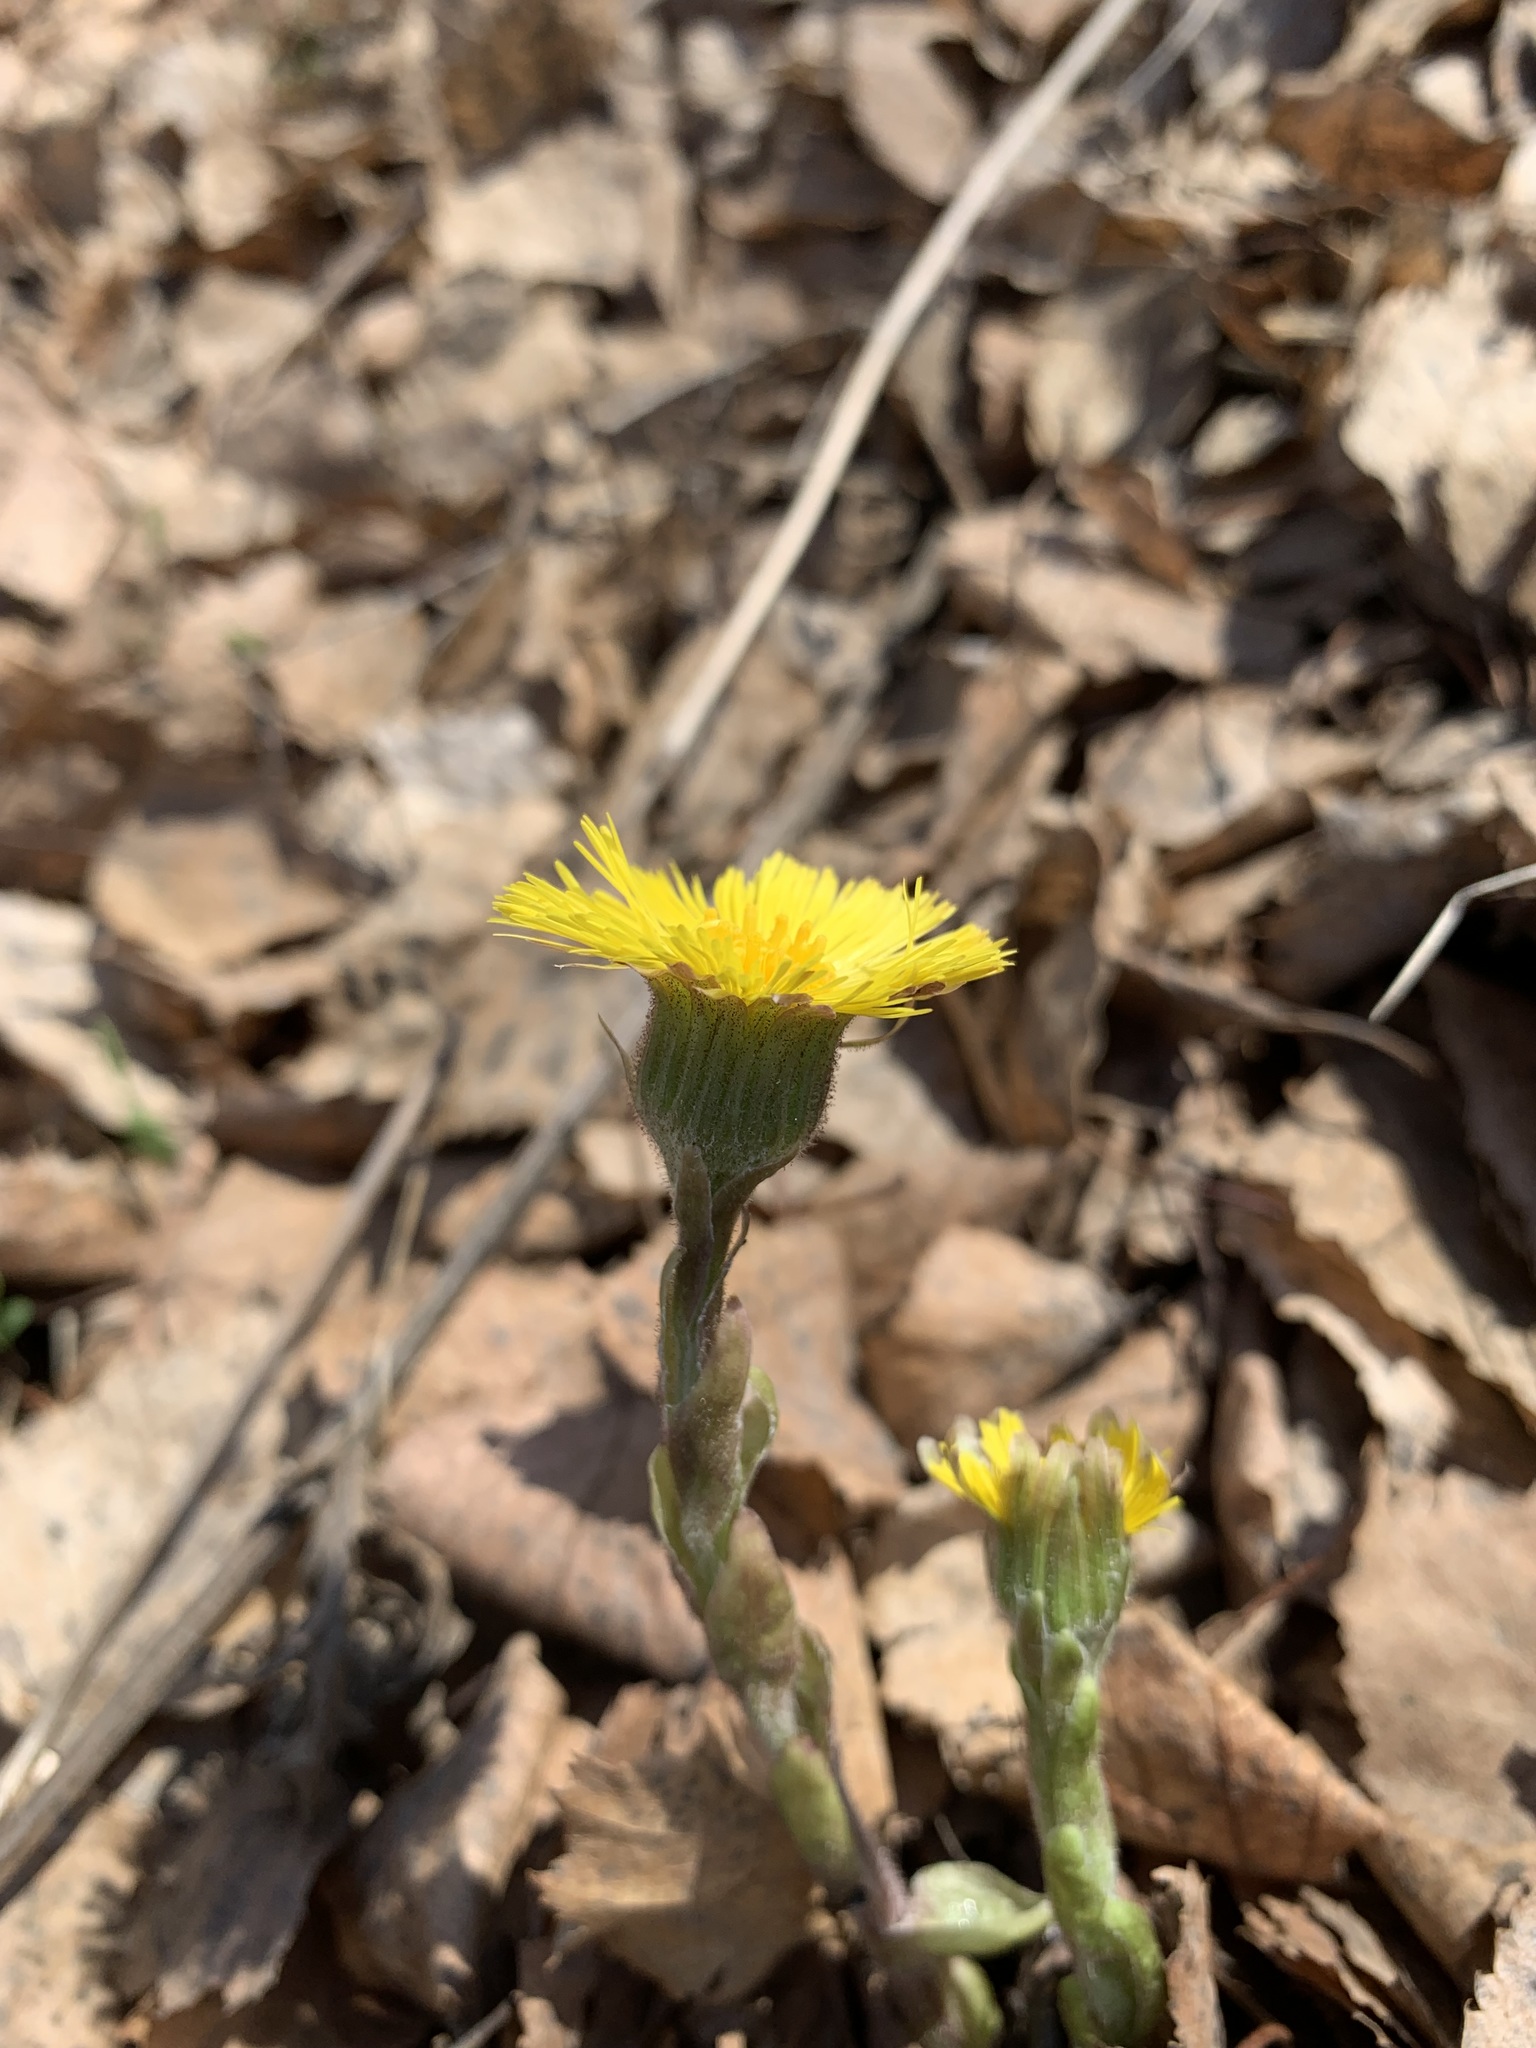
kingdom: Plantae
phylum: Tracheophyta
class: Magnoliopsida
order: Asterales
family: Asteraceae
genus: Tussilago
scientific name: Tussilago farfara
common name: Coltsfoot
